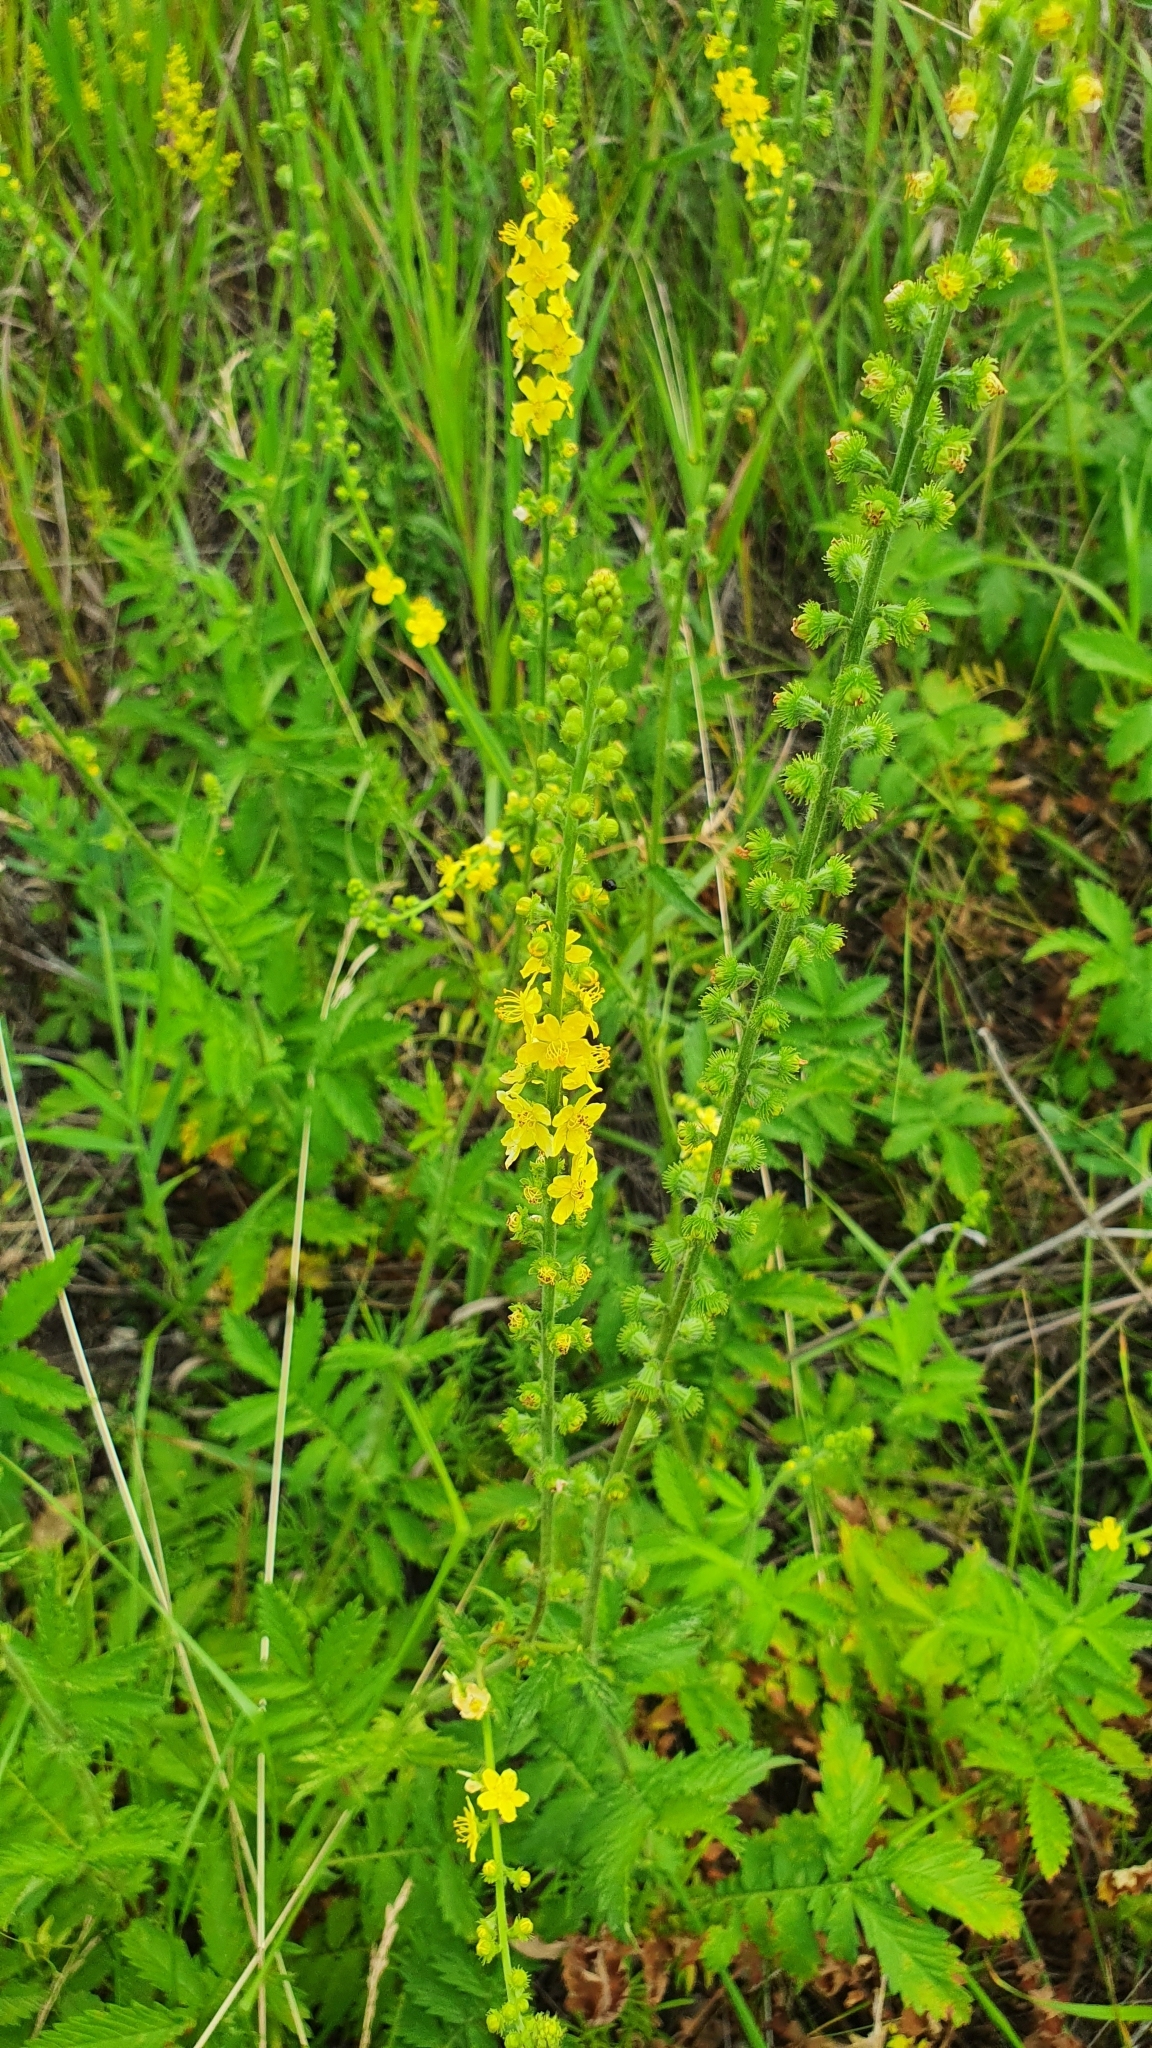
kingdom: Plantae
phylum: Tracheophyta
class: Magnoliopsida
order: Rosales
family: Rosaceae
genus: Agrimonia
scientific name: Agrimonia eupatoria
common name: Agrimony
